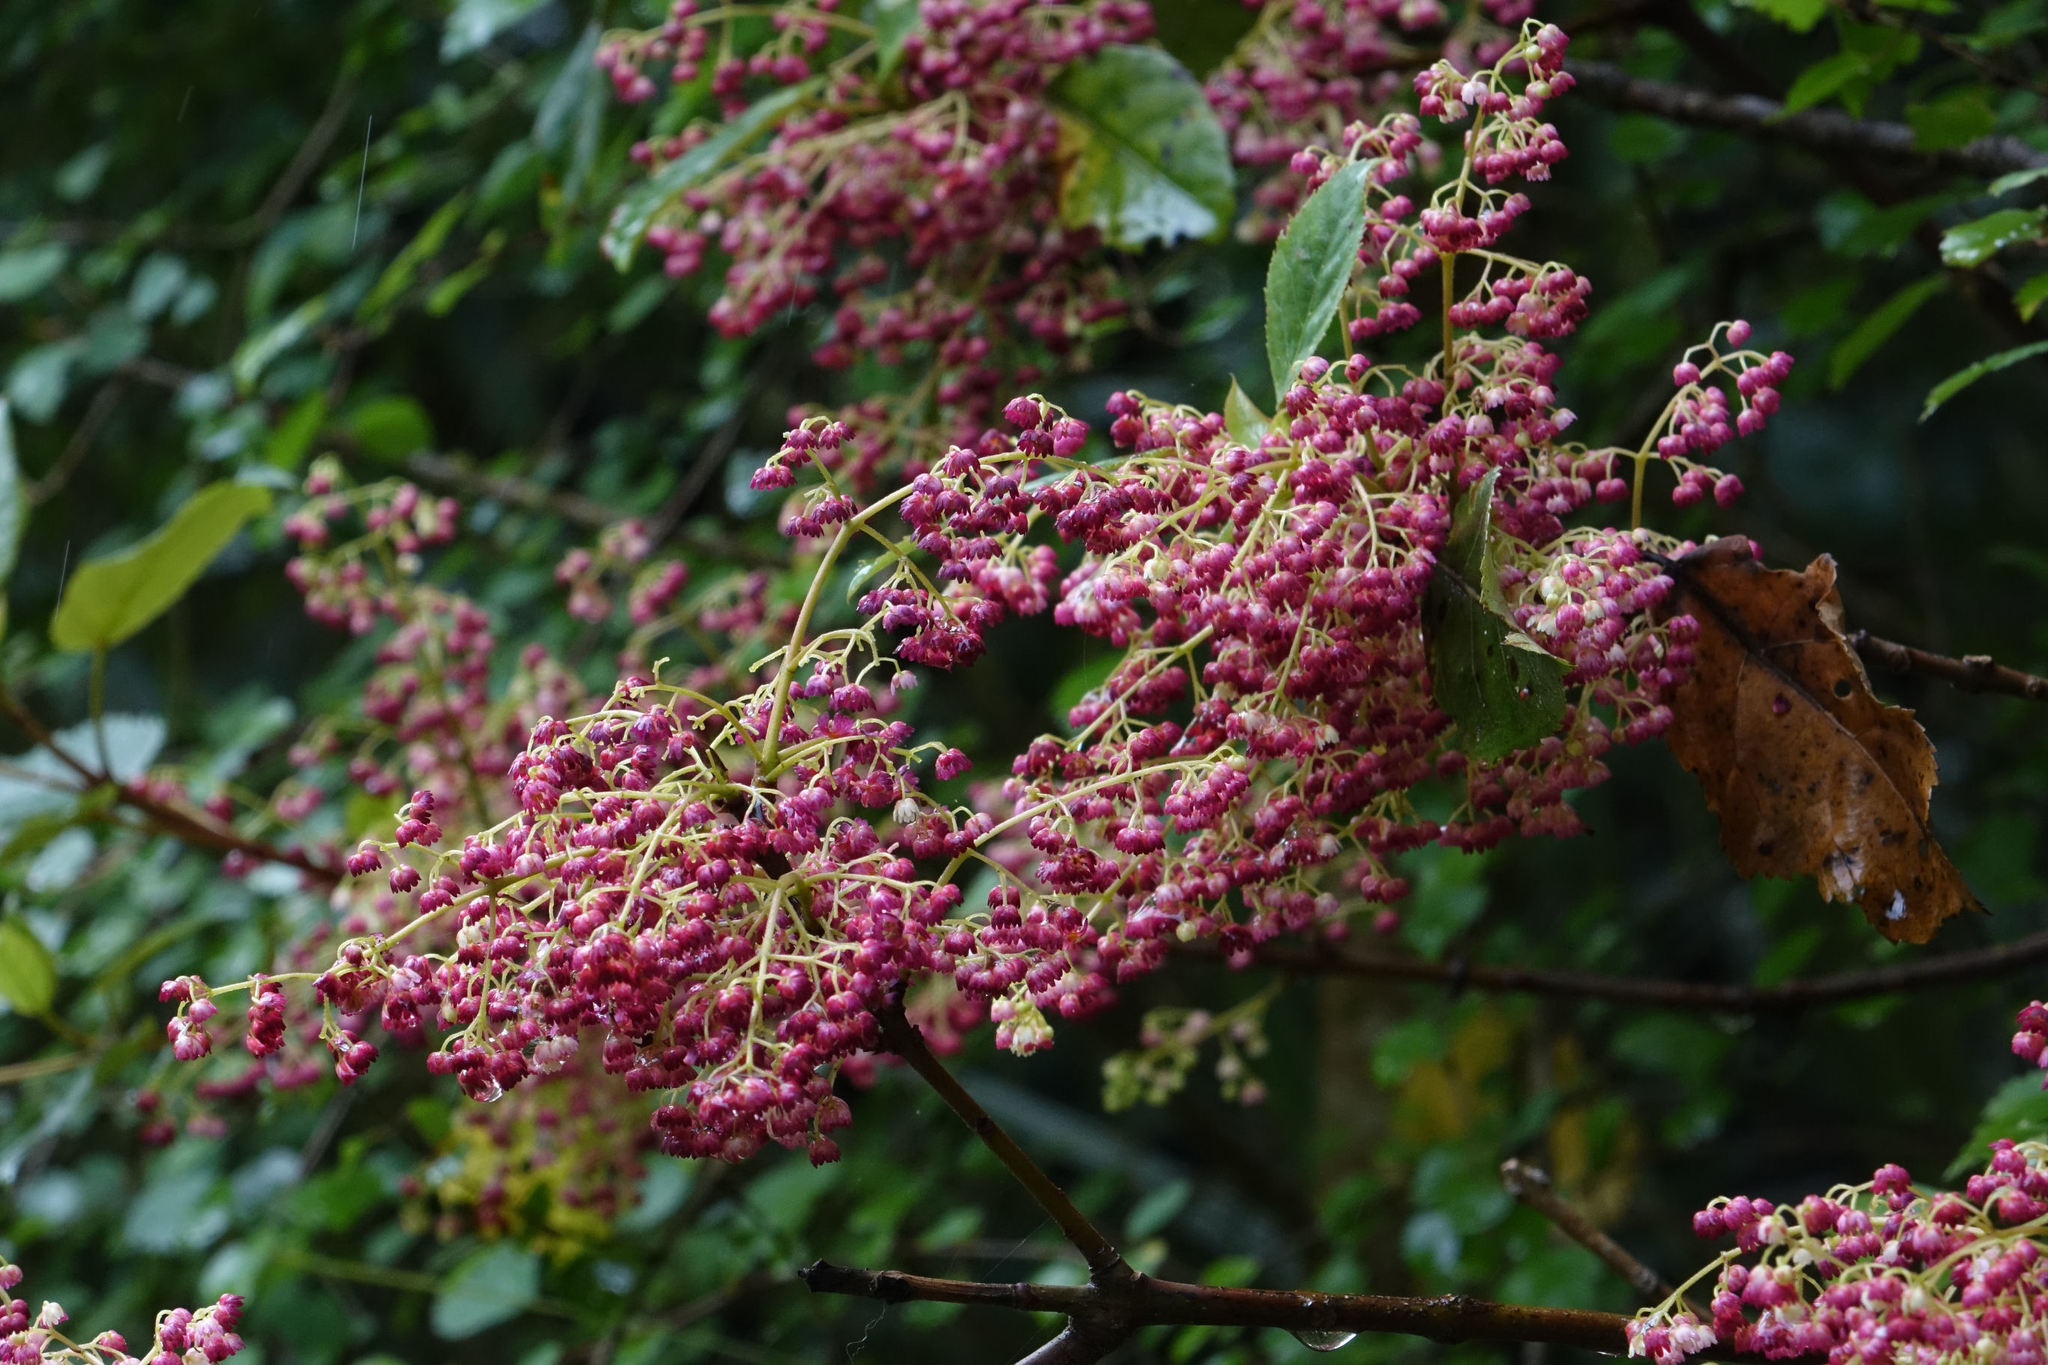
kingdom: Plantae
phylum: Tracheophyta
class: Magnoliopsida
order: Oxalidales
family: Elaeocarpaceae
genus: Aristotelia
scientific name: Aristotelia serrata
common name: New zealand wineberry
